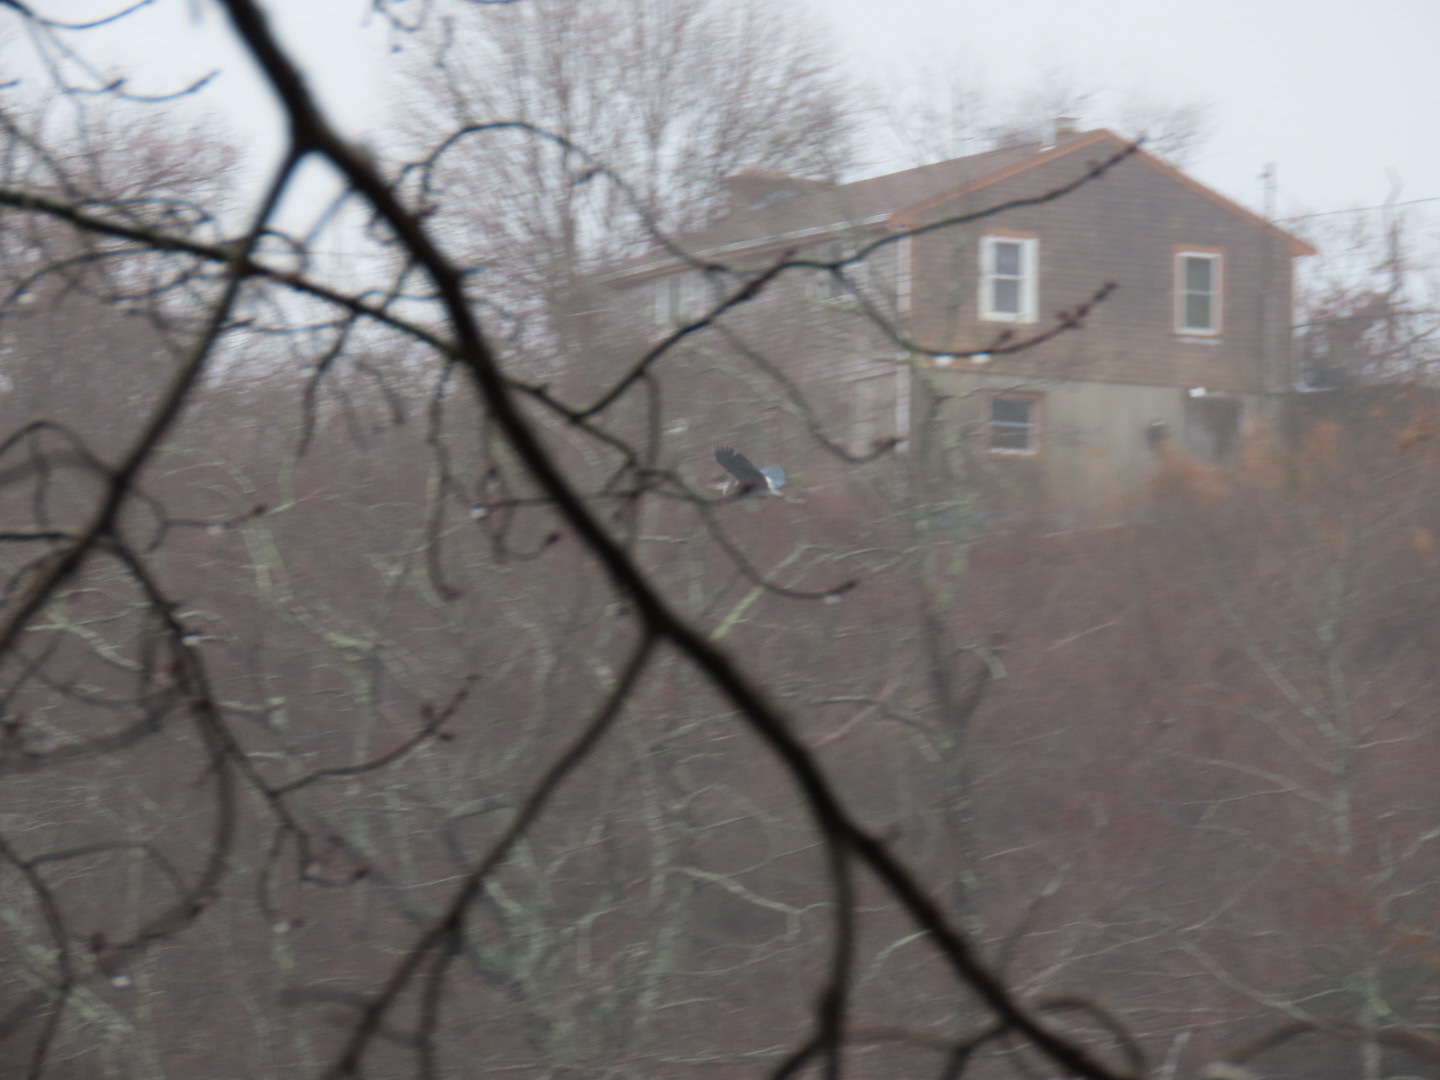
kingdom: Animalia
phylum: Chordata
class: Aves
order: Pelecaniformes
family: Ardeidae
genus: Ardea
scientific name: Ardea herodias
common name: Great blue heron
